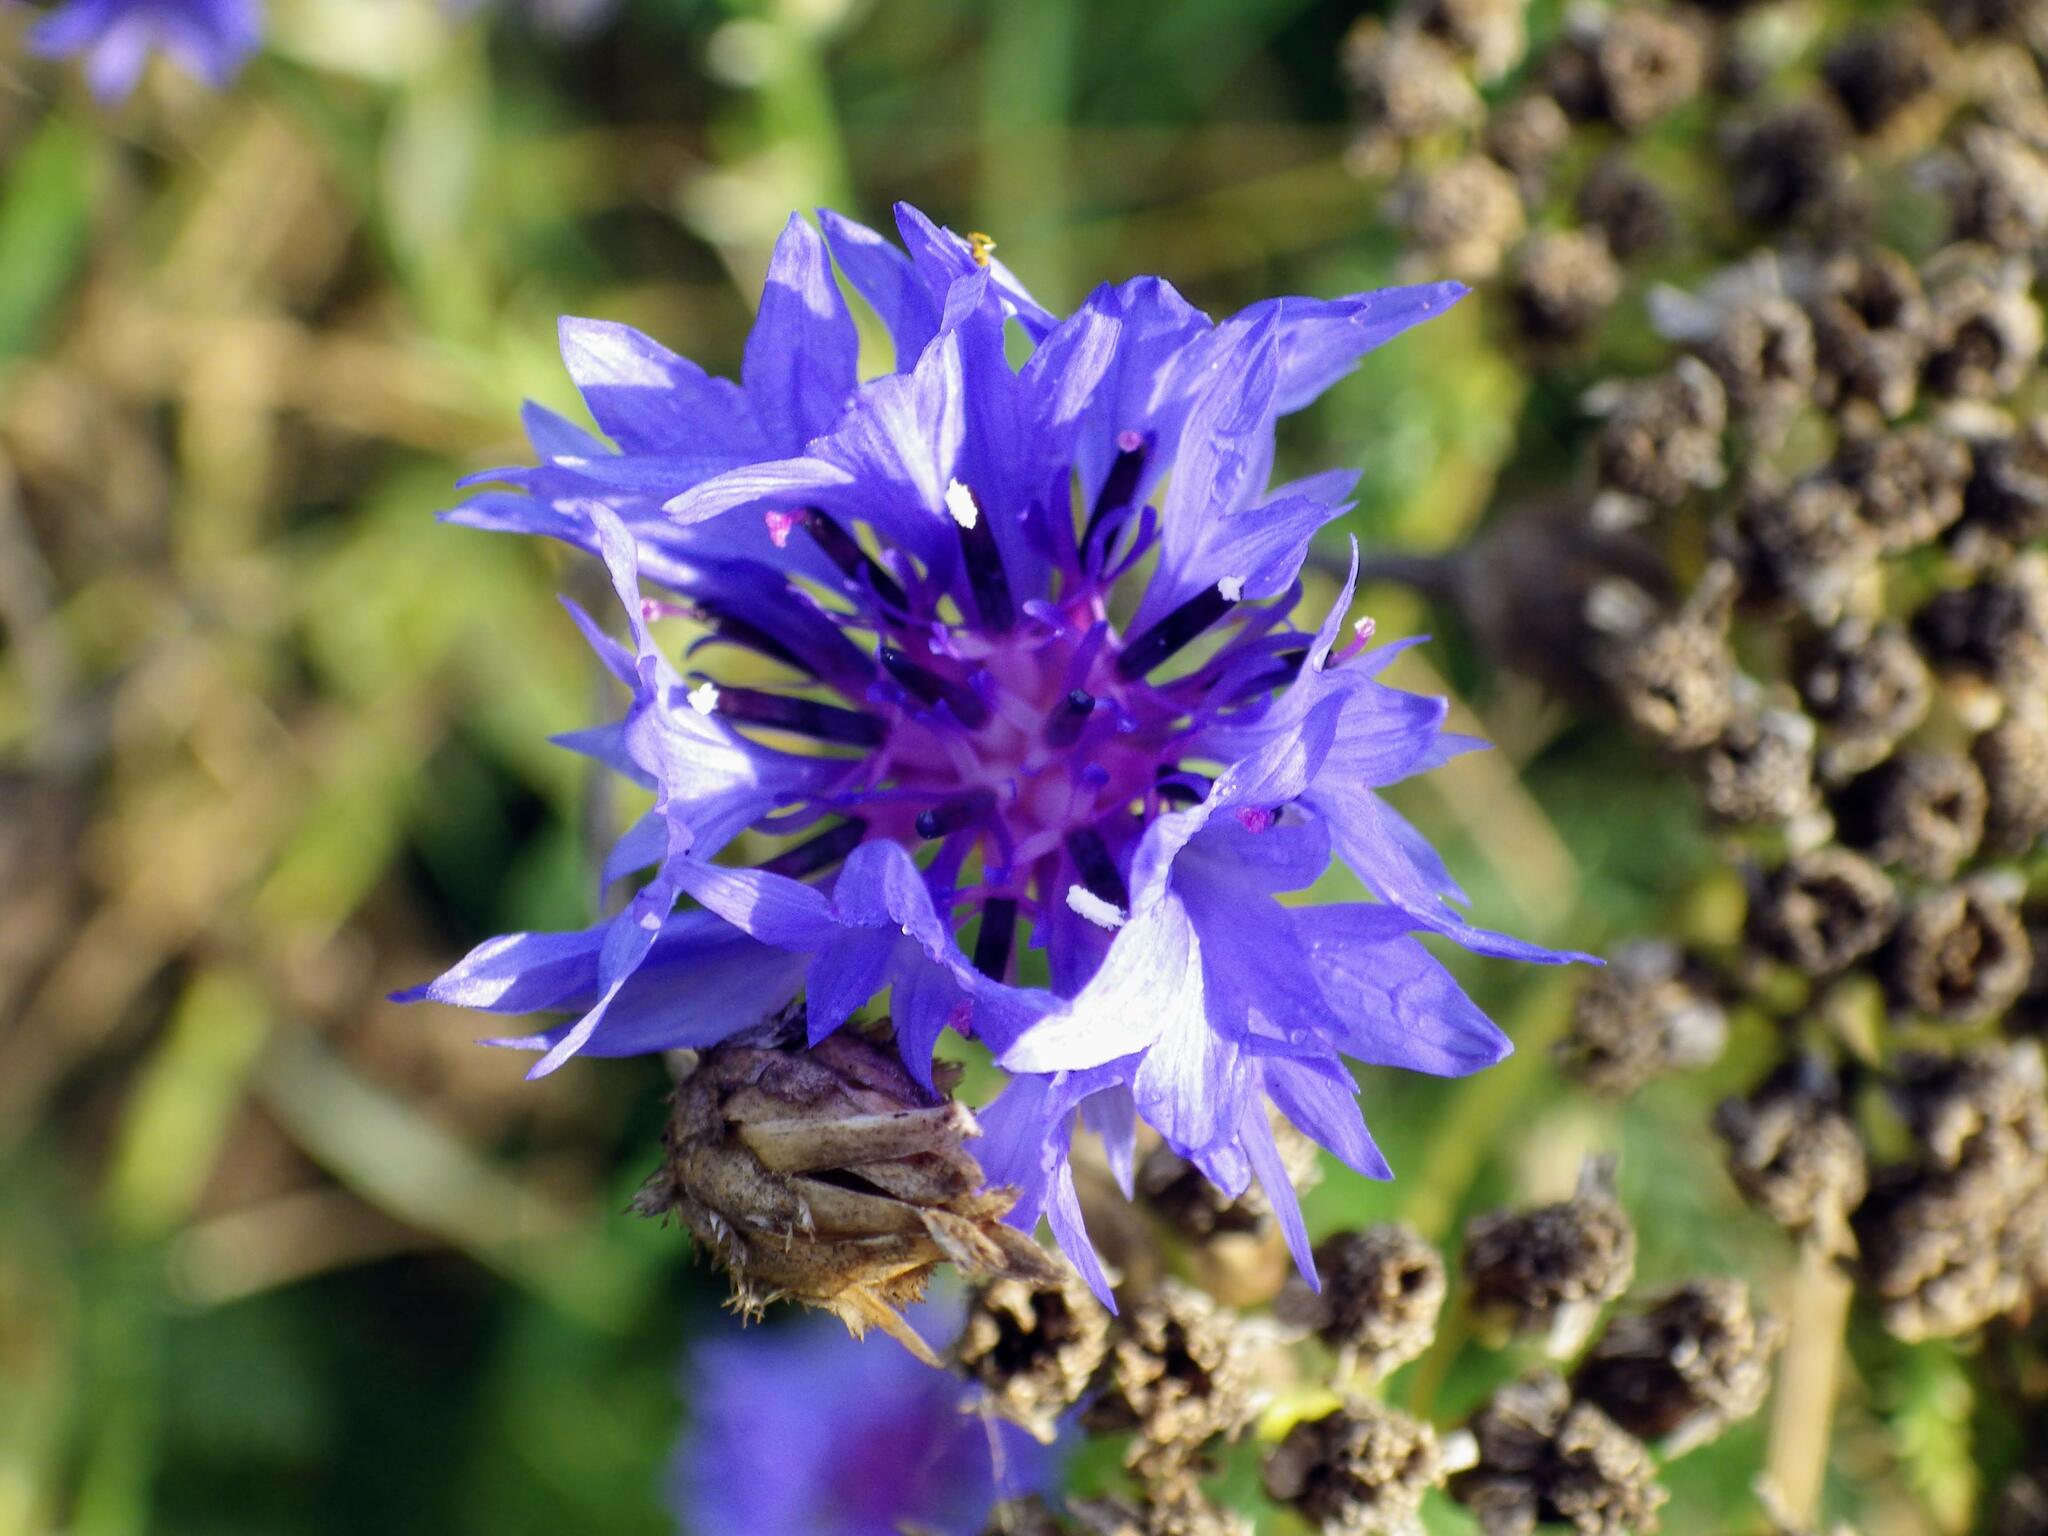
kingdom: Plantae
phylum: Tracheophyta
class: Magnoliopsida
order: Asterales
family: Asteraceae
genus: Centaurea
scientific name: Centaurea cyanus
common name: Cornflower
